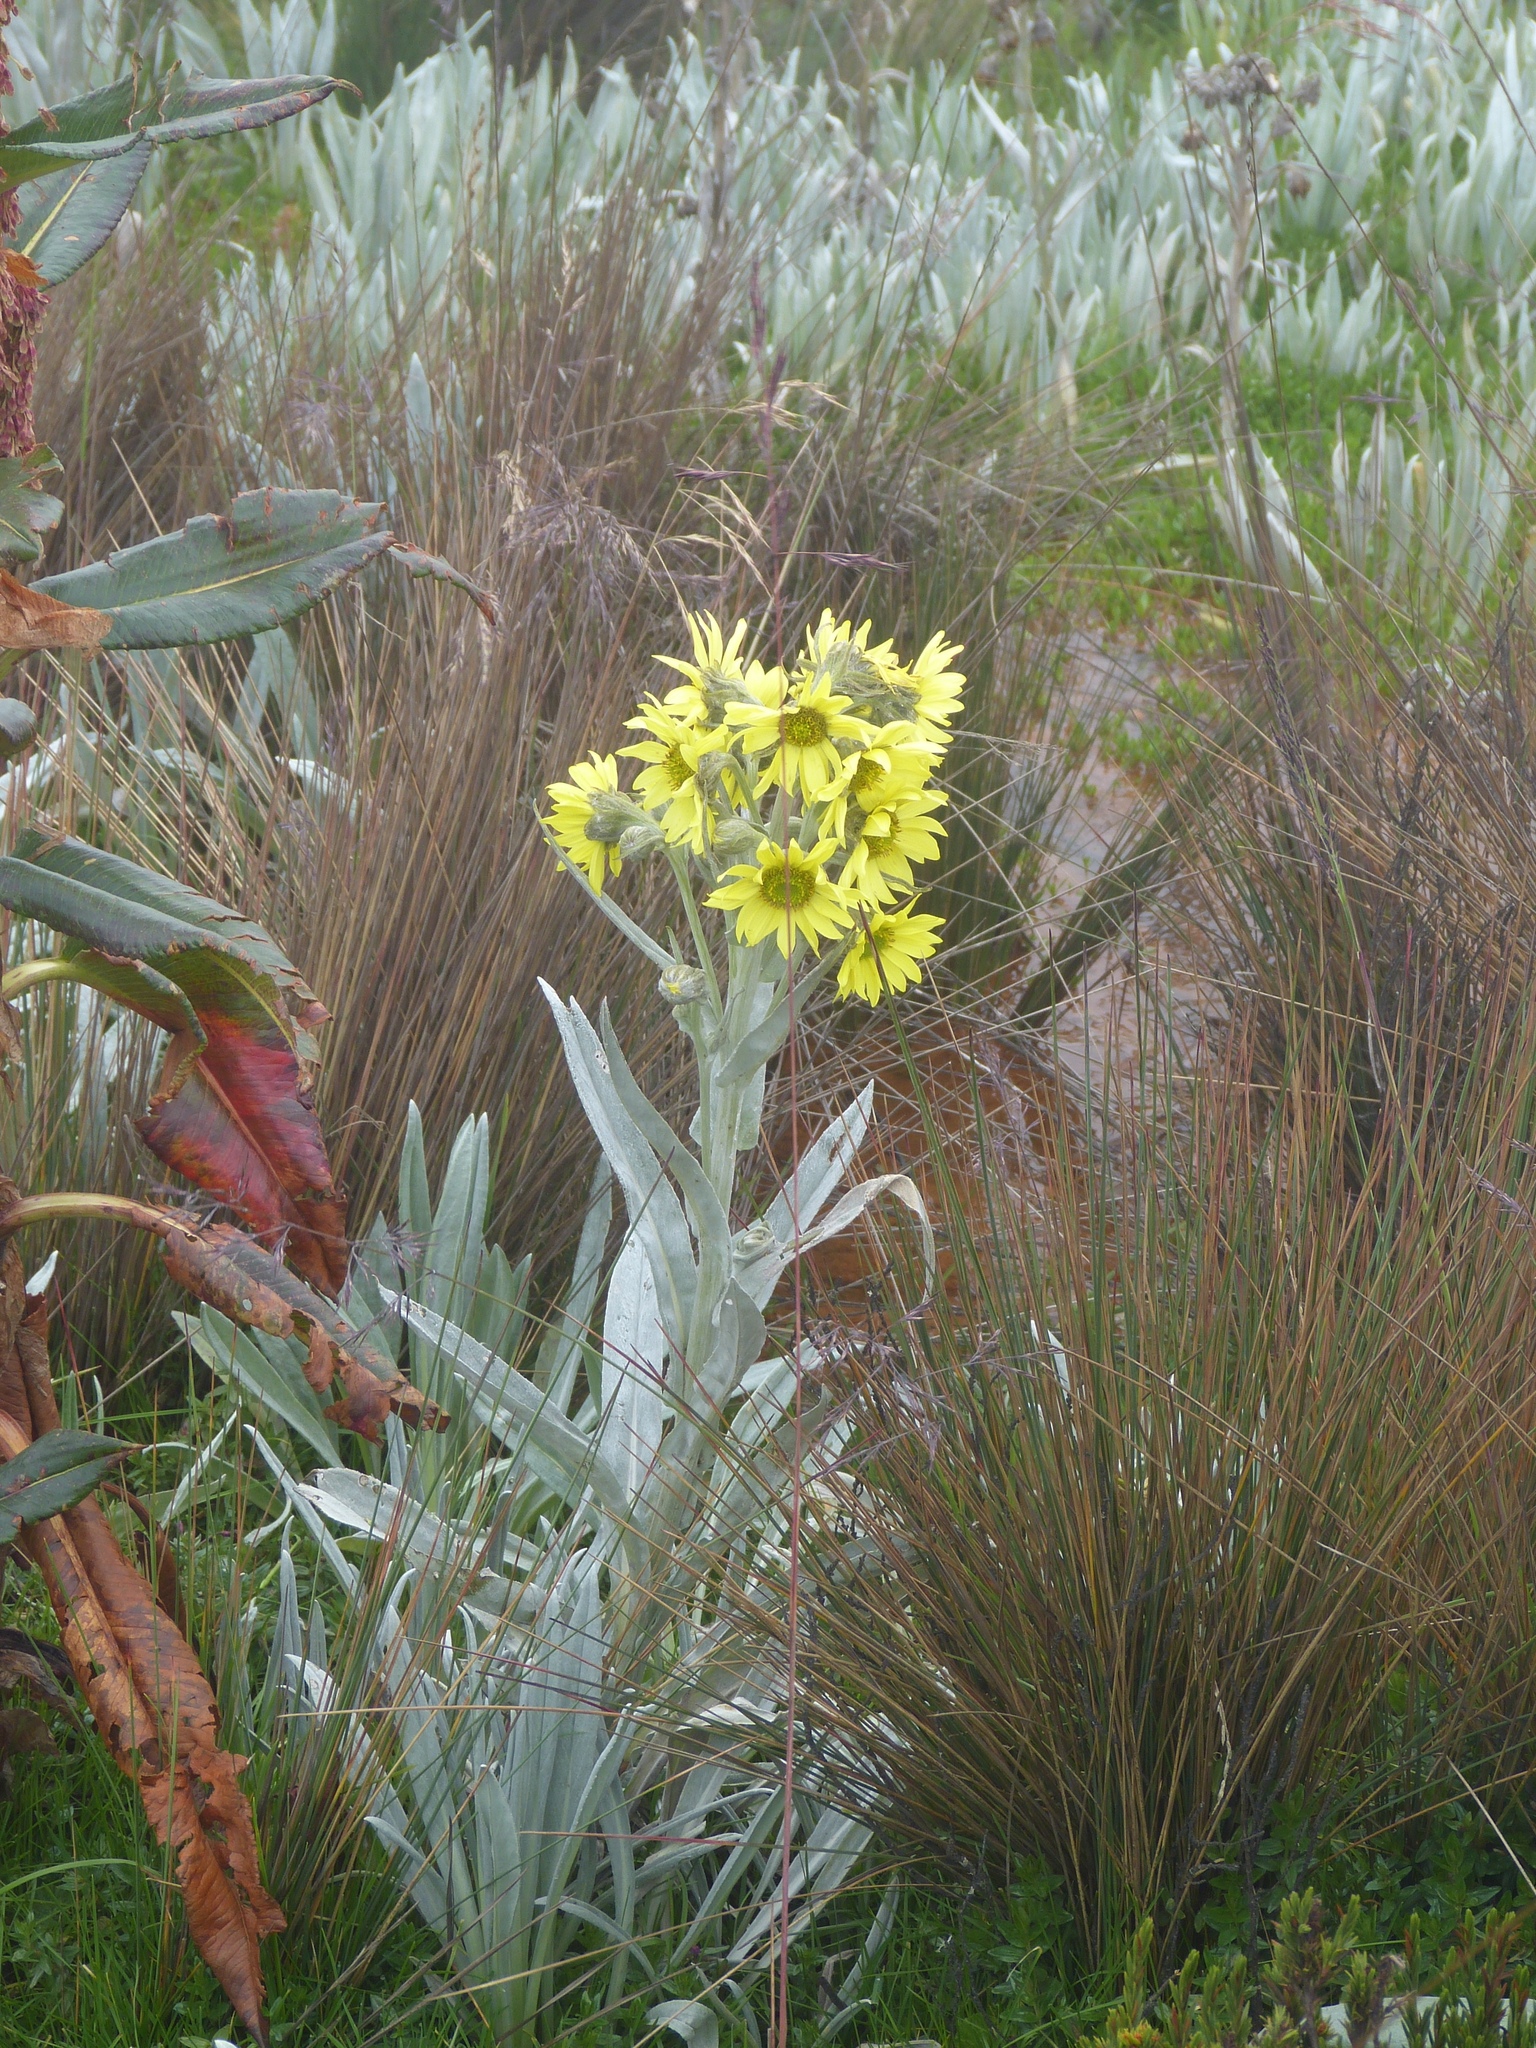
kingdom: Plantae
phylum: Tracheophyta
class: Magnoliopsida
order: Asterales
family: Asteraceae
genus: Senecio
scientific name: Senecio niveoaureus
